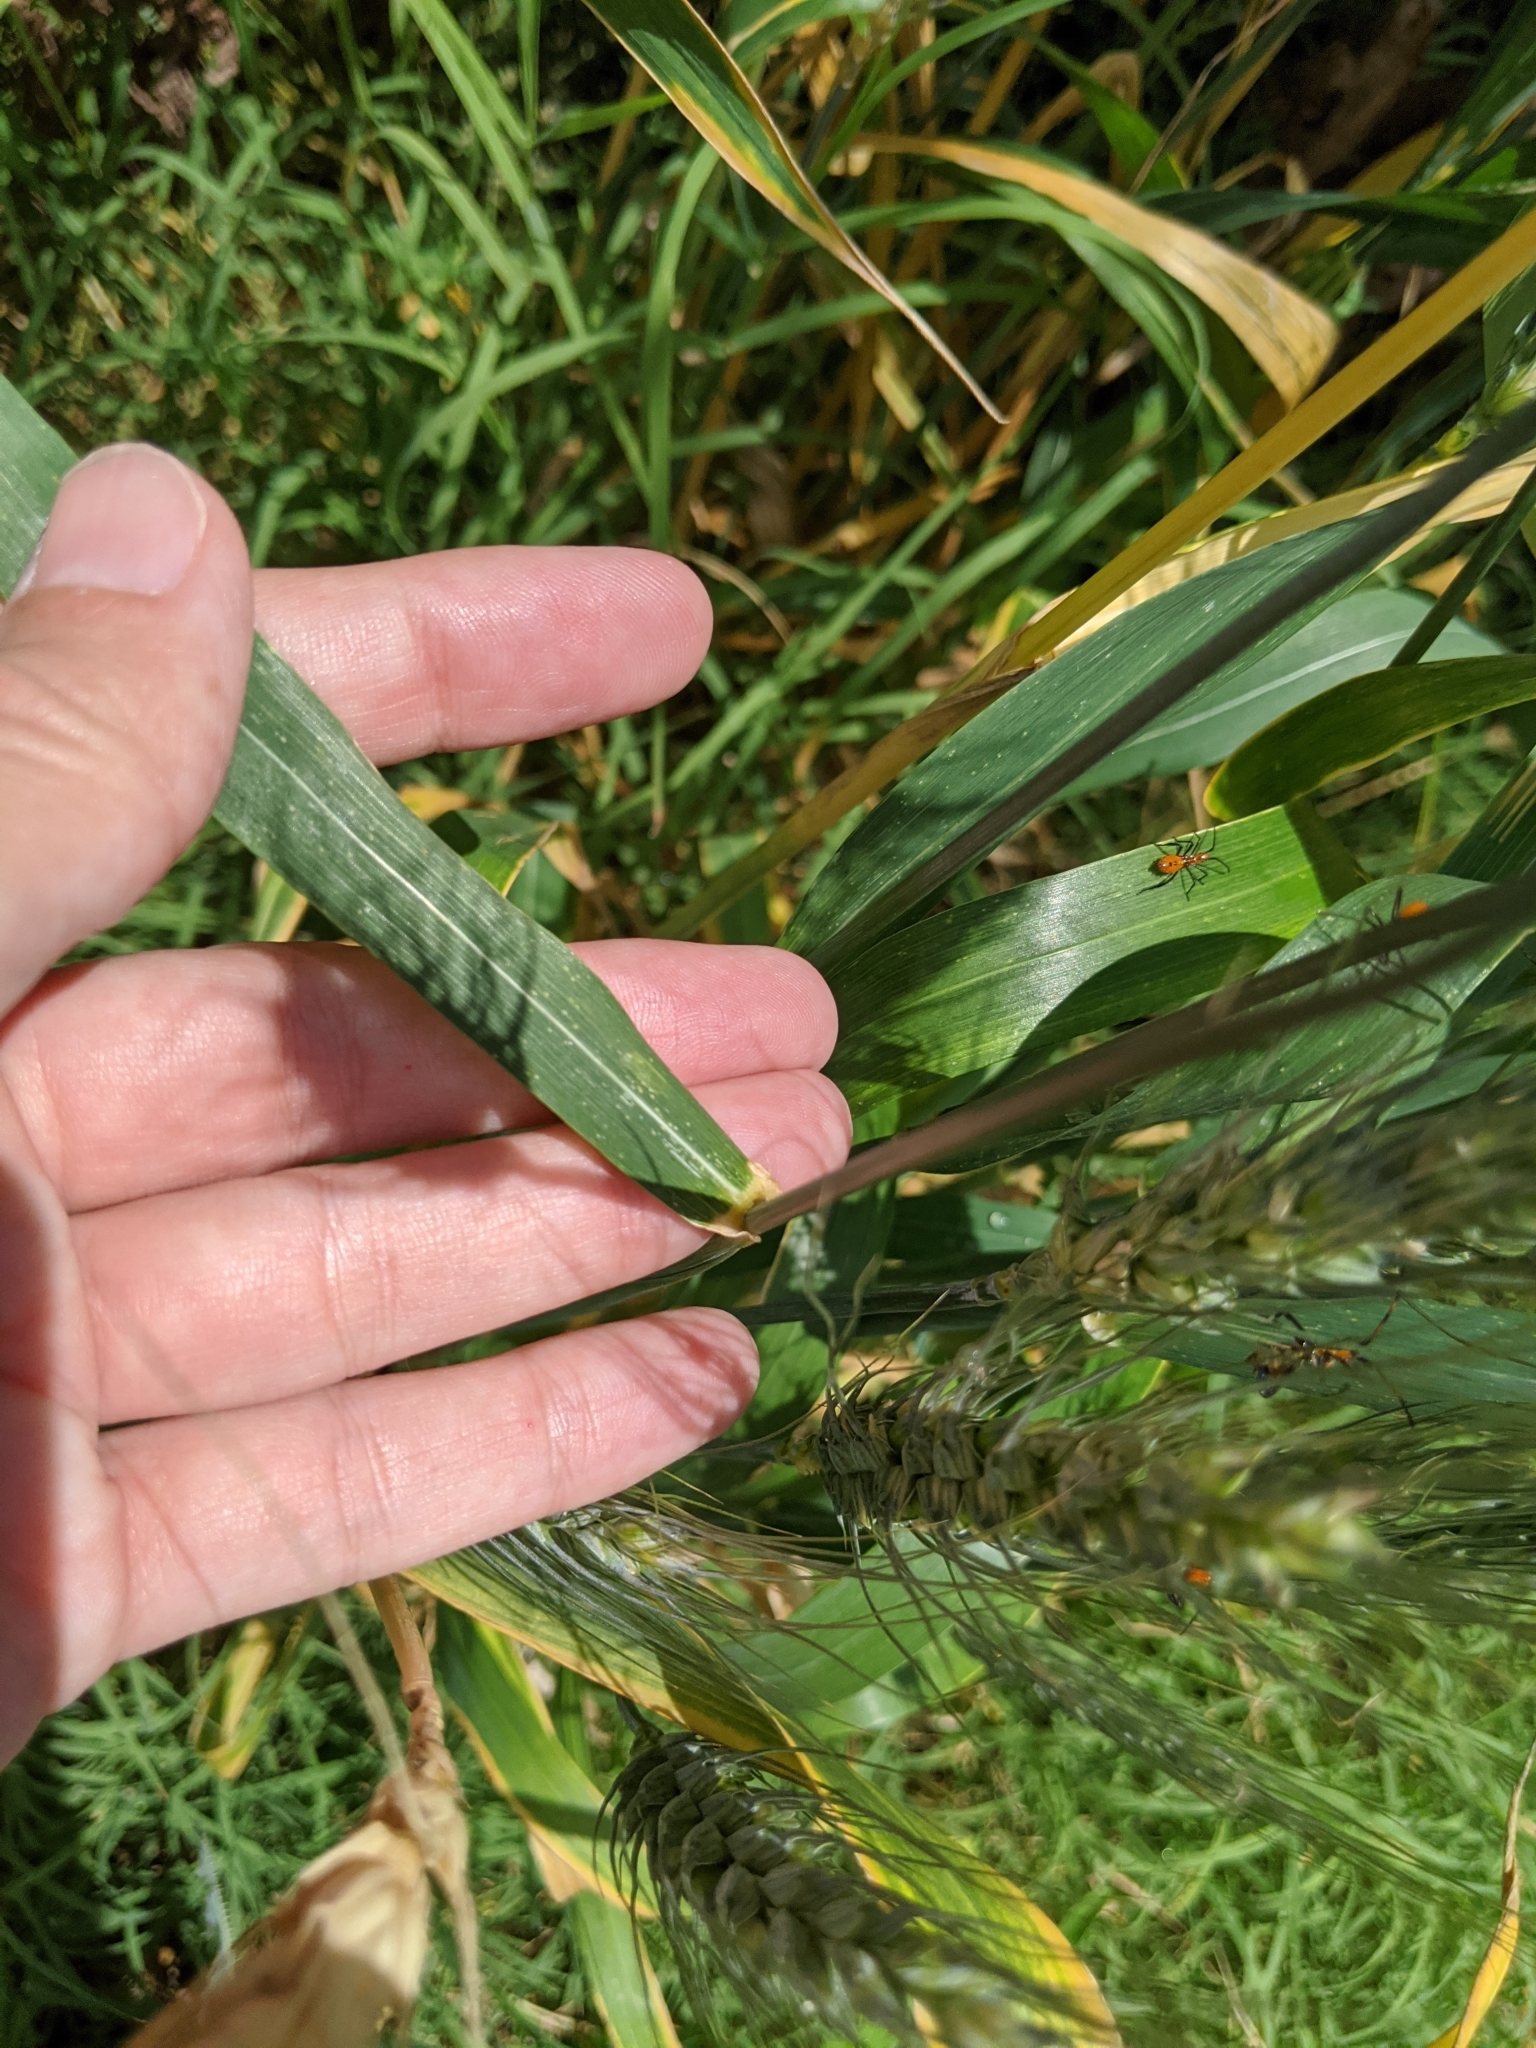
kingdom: Plantae
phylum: Tracheophyta
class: Liliopsida
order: Poales
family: Poaceae
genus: Triticum
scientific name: Triticum aestivum
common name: Common wheat
